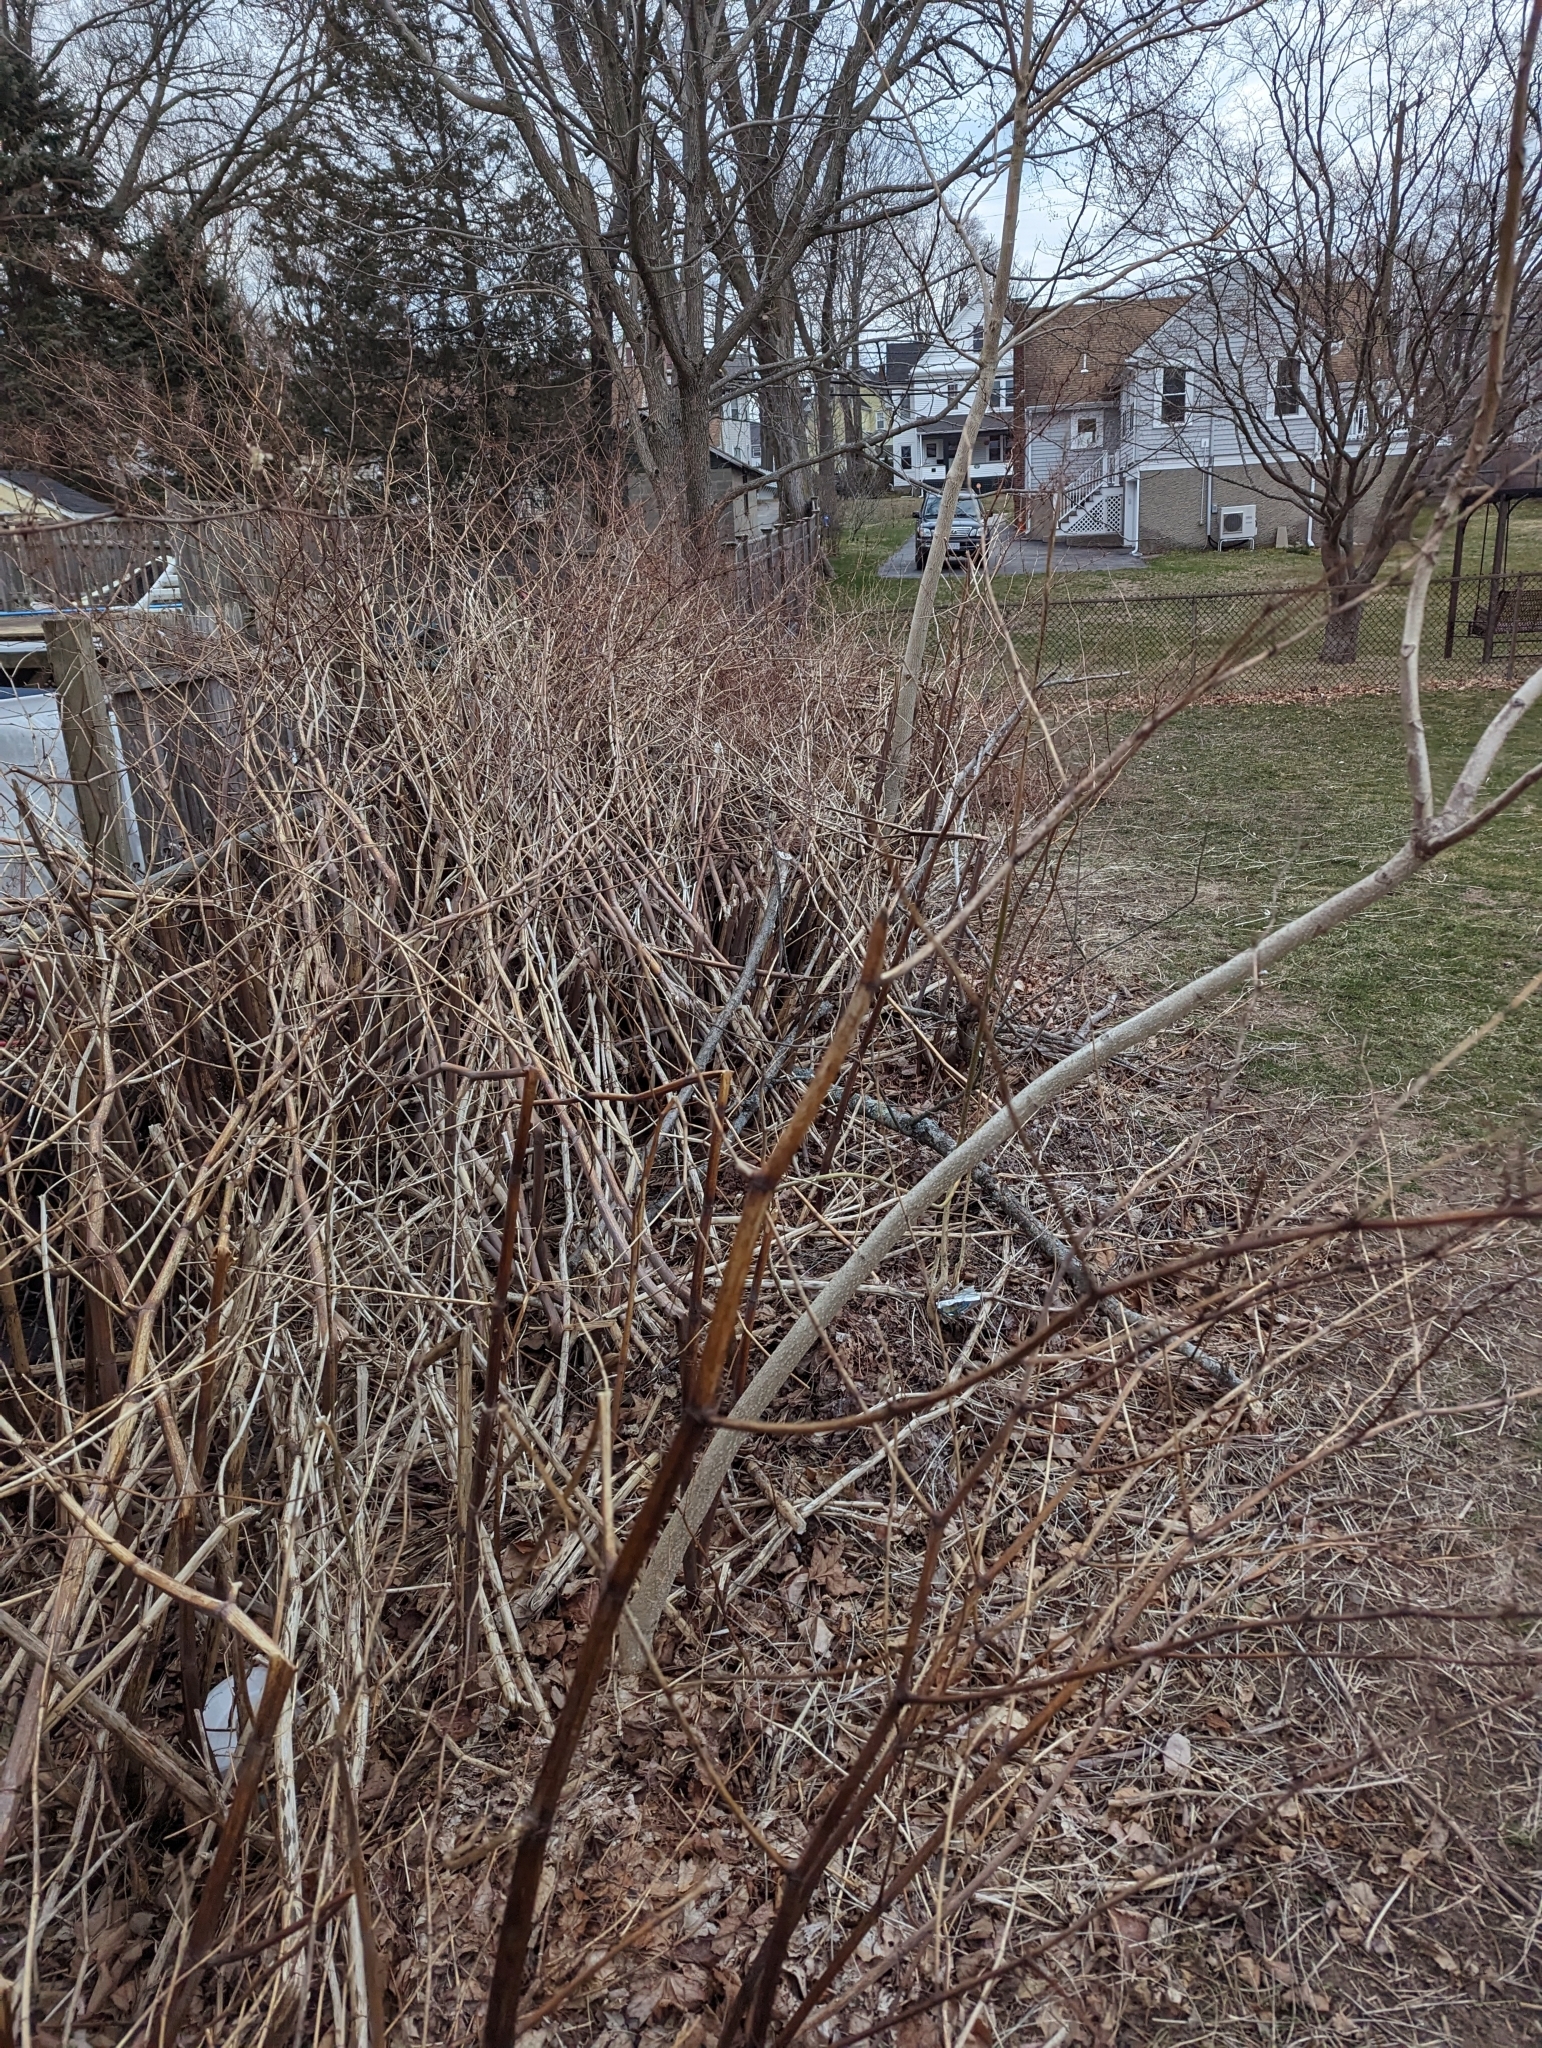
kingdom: Plantae
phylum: Tracheophyta
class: Magnoliopsida
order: Caryophyllales
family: Polygonaceae
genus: Reynoutria
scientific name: Reynoutria japonica
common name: Japanese knotweed
